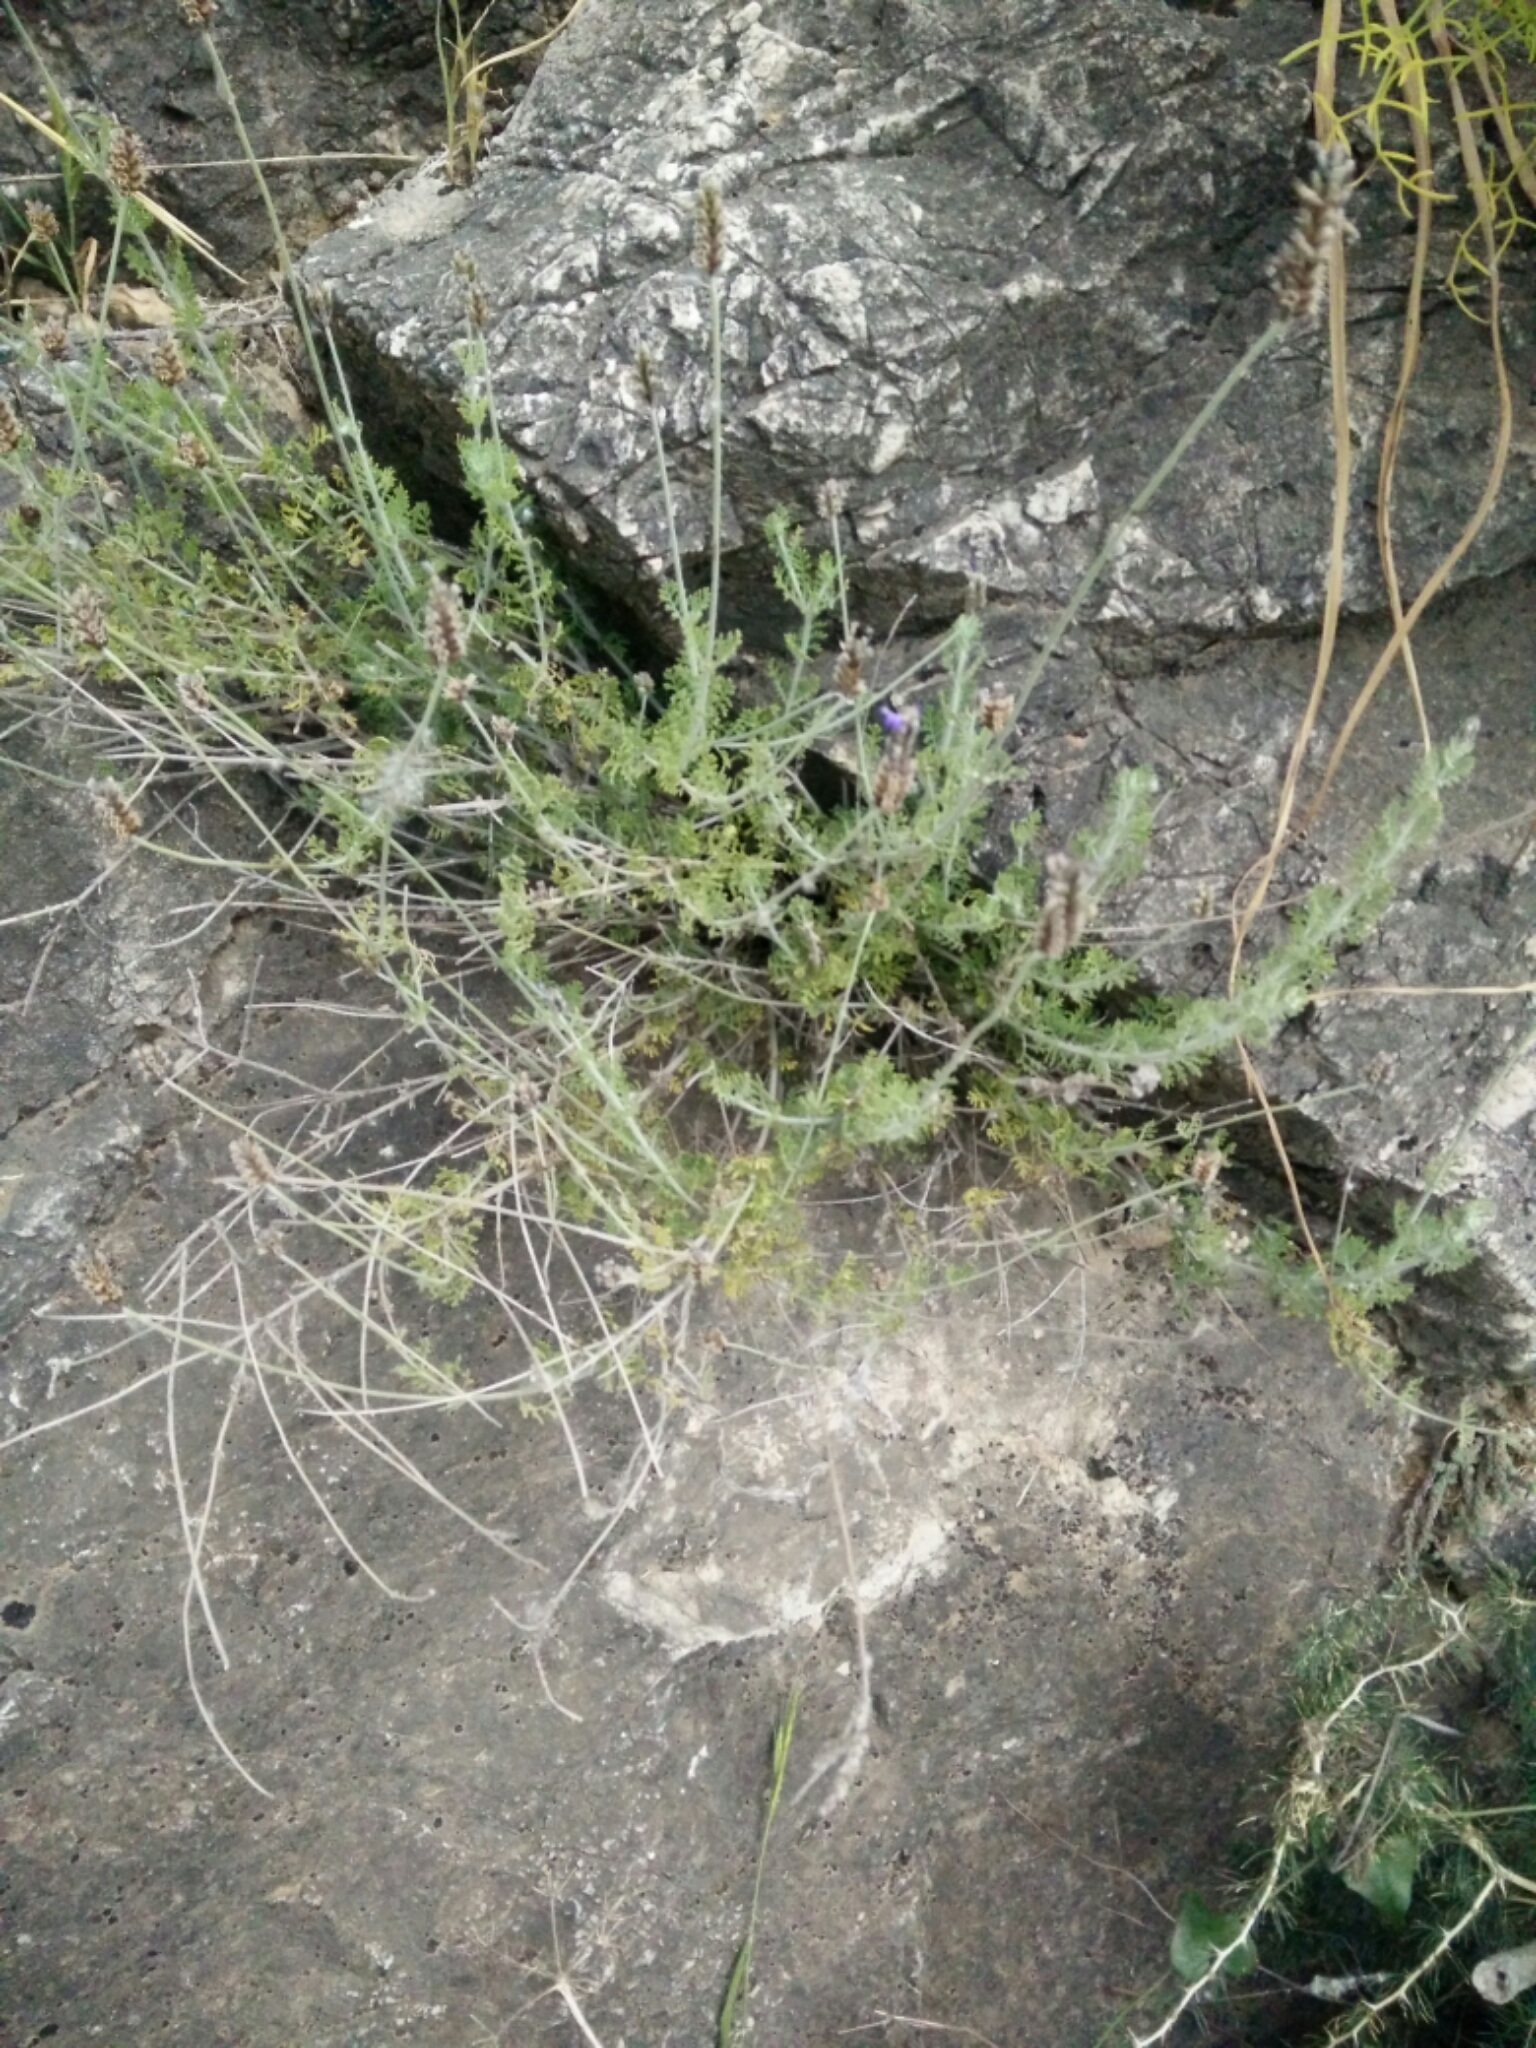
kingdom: Plantae
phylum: Tracheophyta
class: Magnoliopsida
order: Lamiales
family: Lamiaceae
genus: Lavandula
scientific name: Lavandula multifida
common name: Fern-leaf lavender
